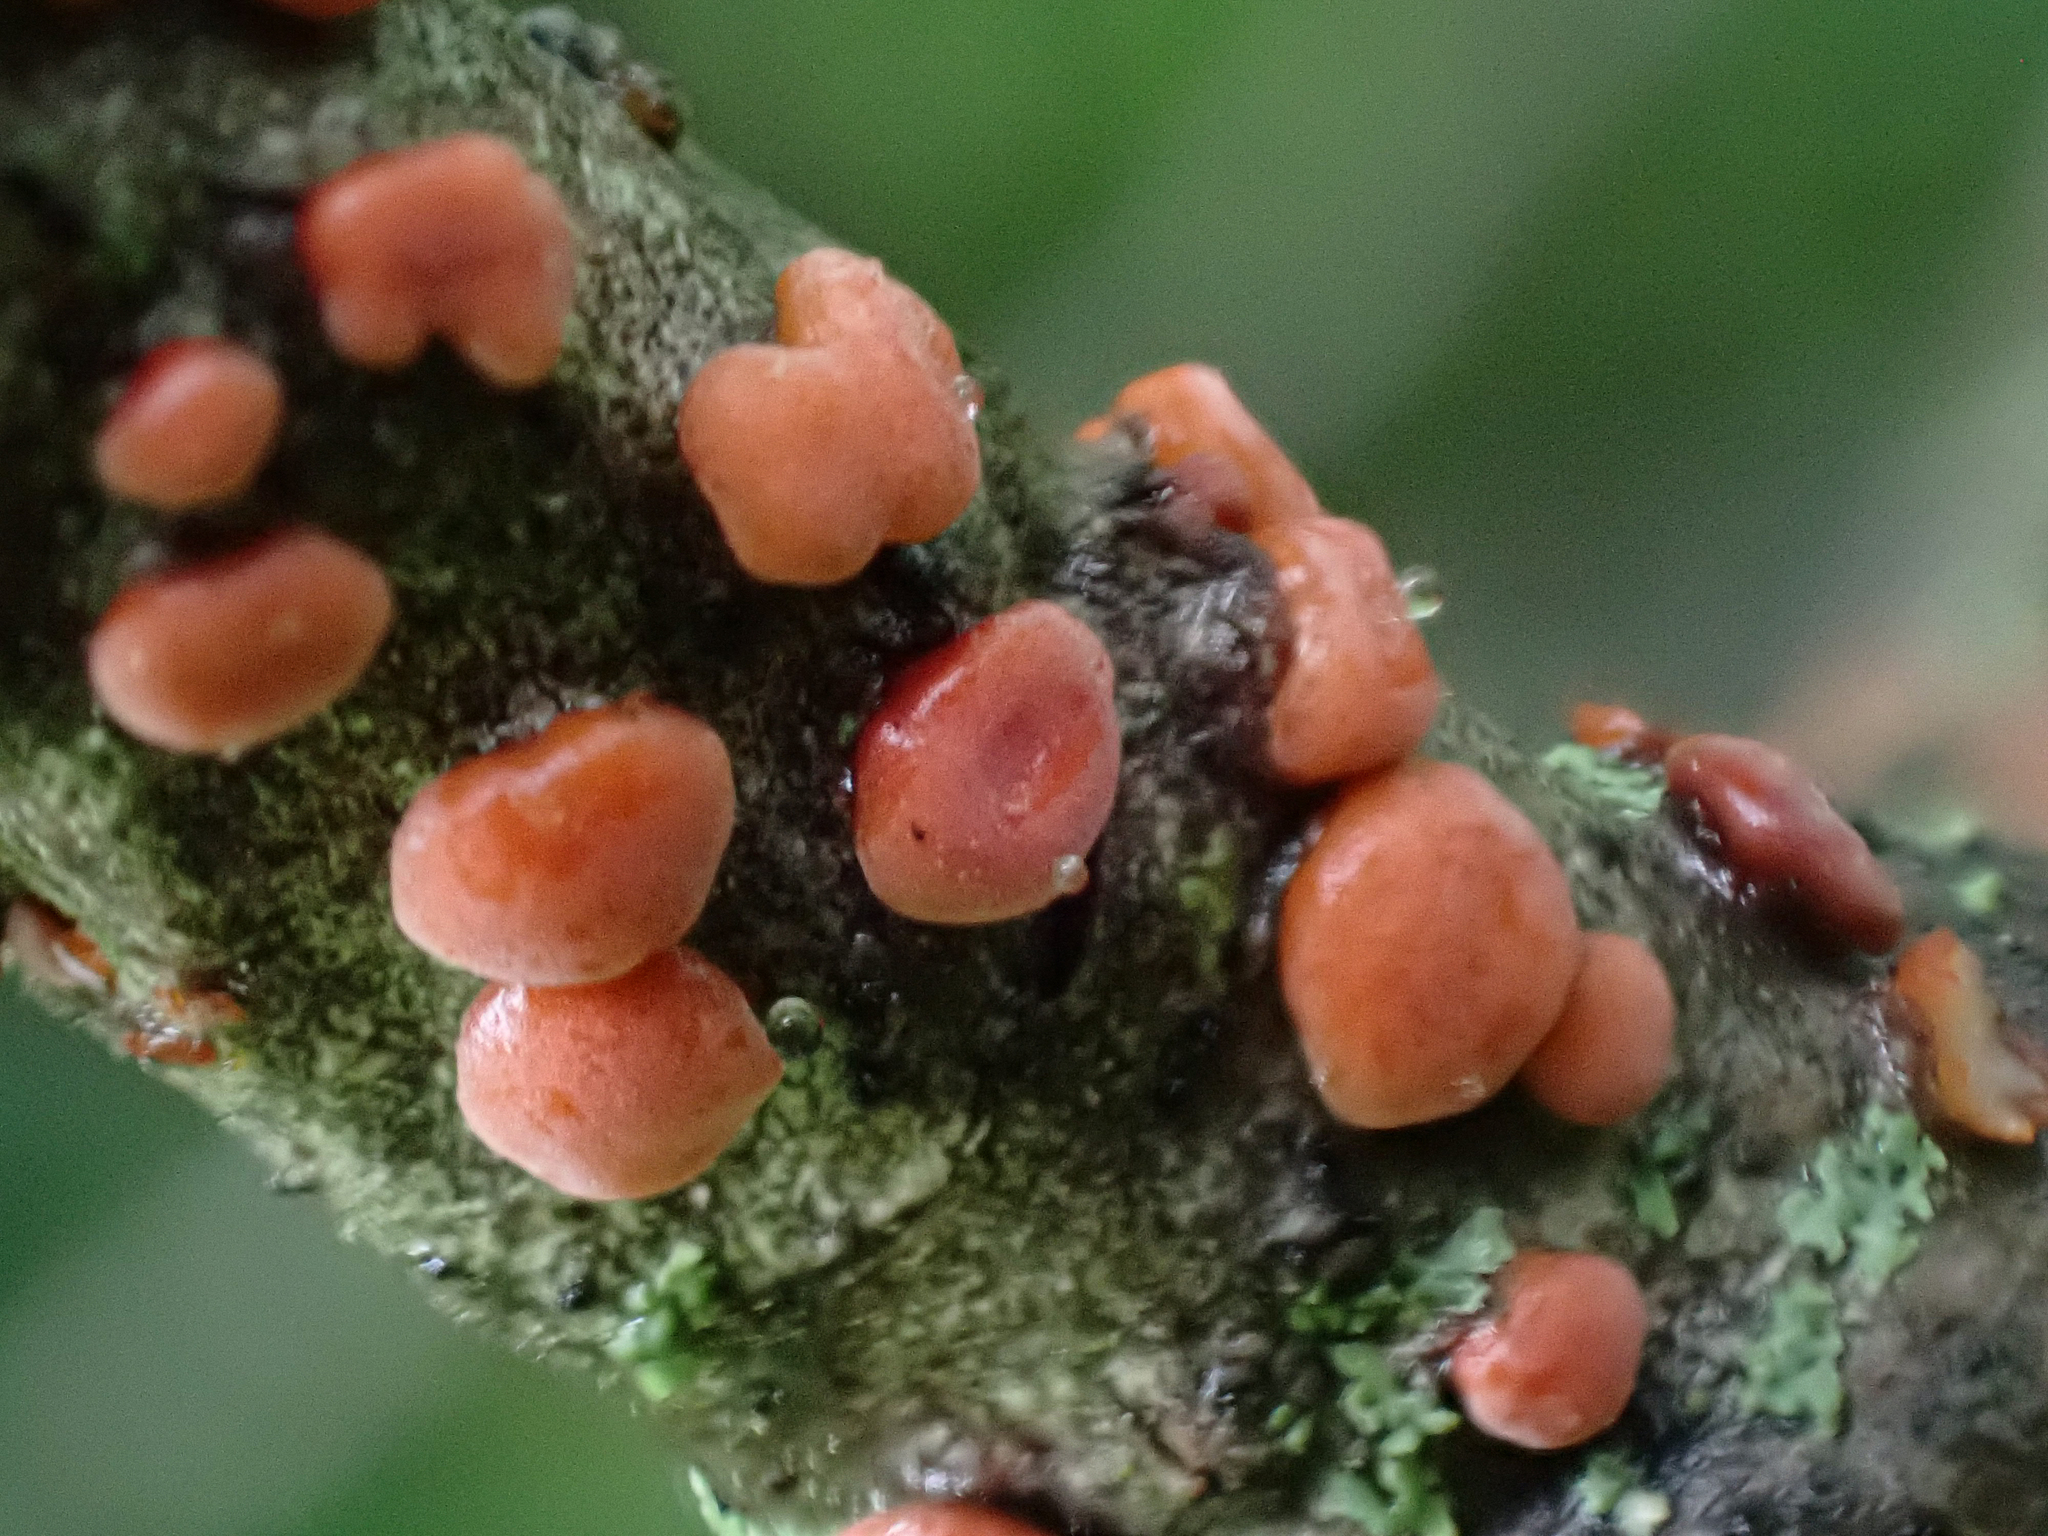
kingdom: Fungi
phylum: Basidiomycota
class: Agaricomycetes
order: Russulales
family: Peniophoraceae
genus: Peniophora
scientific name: Peniophora rufa
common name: Red tree brain fungus
